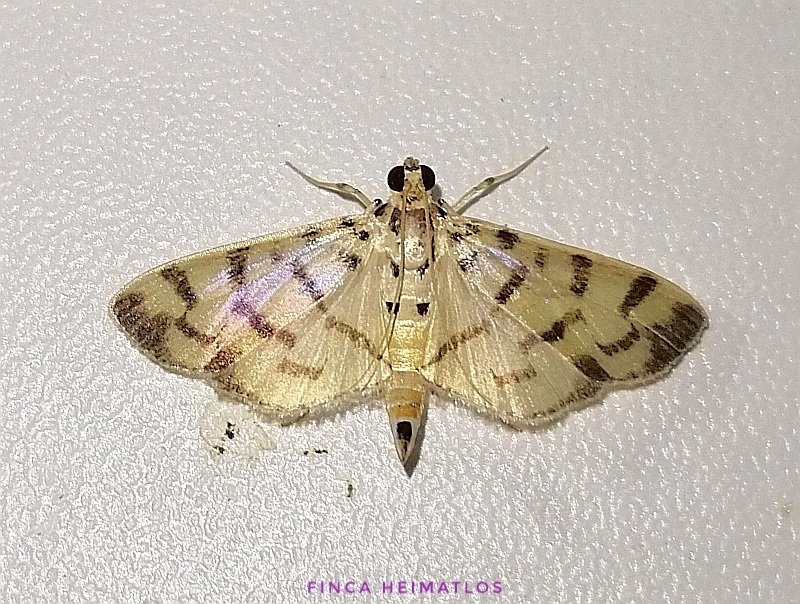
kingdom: Animalia
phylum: Arthropoda
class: Insecta
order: Lepidoptera
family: Crambidae
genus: Dichocrocis
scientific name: Dichocrocis aechmisalis
